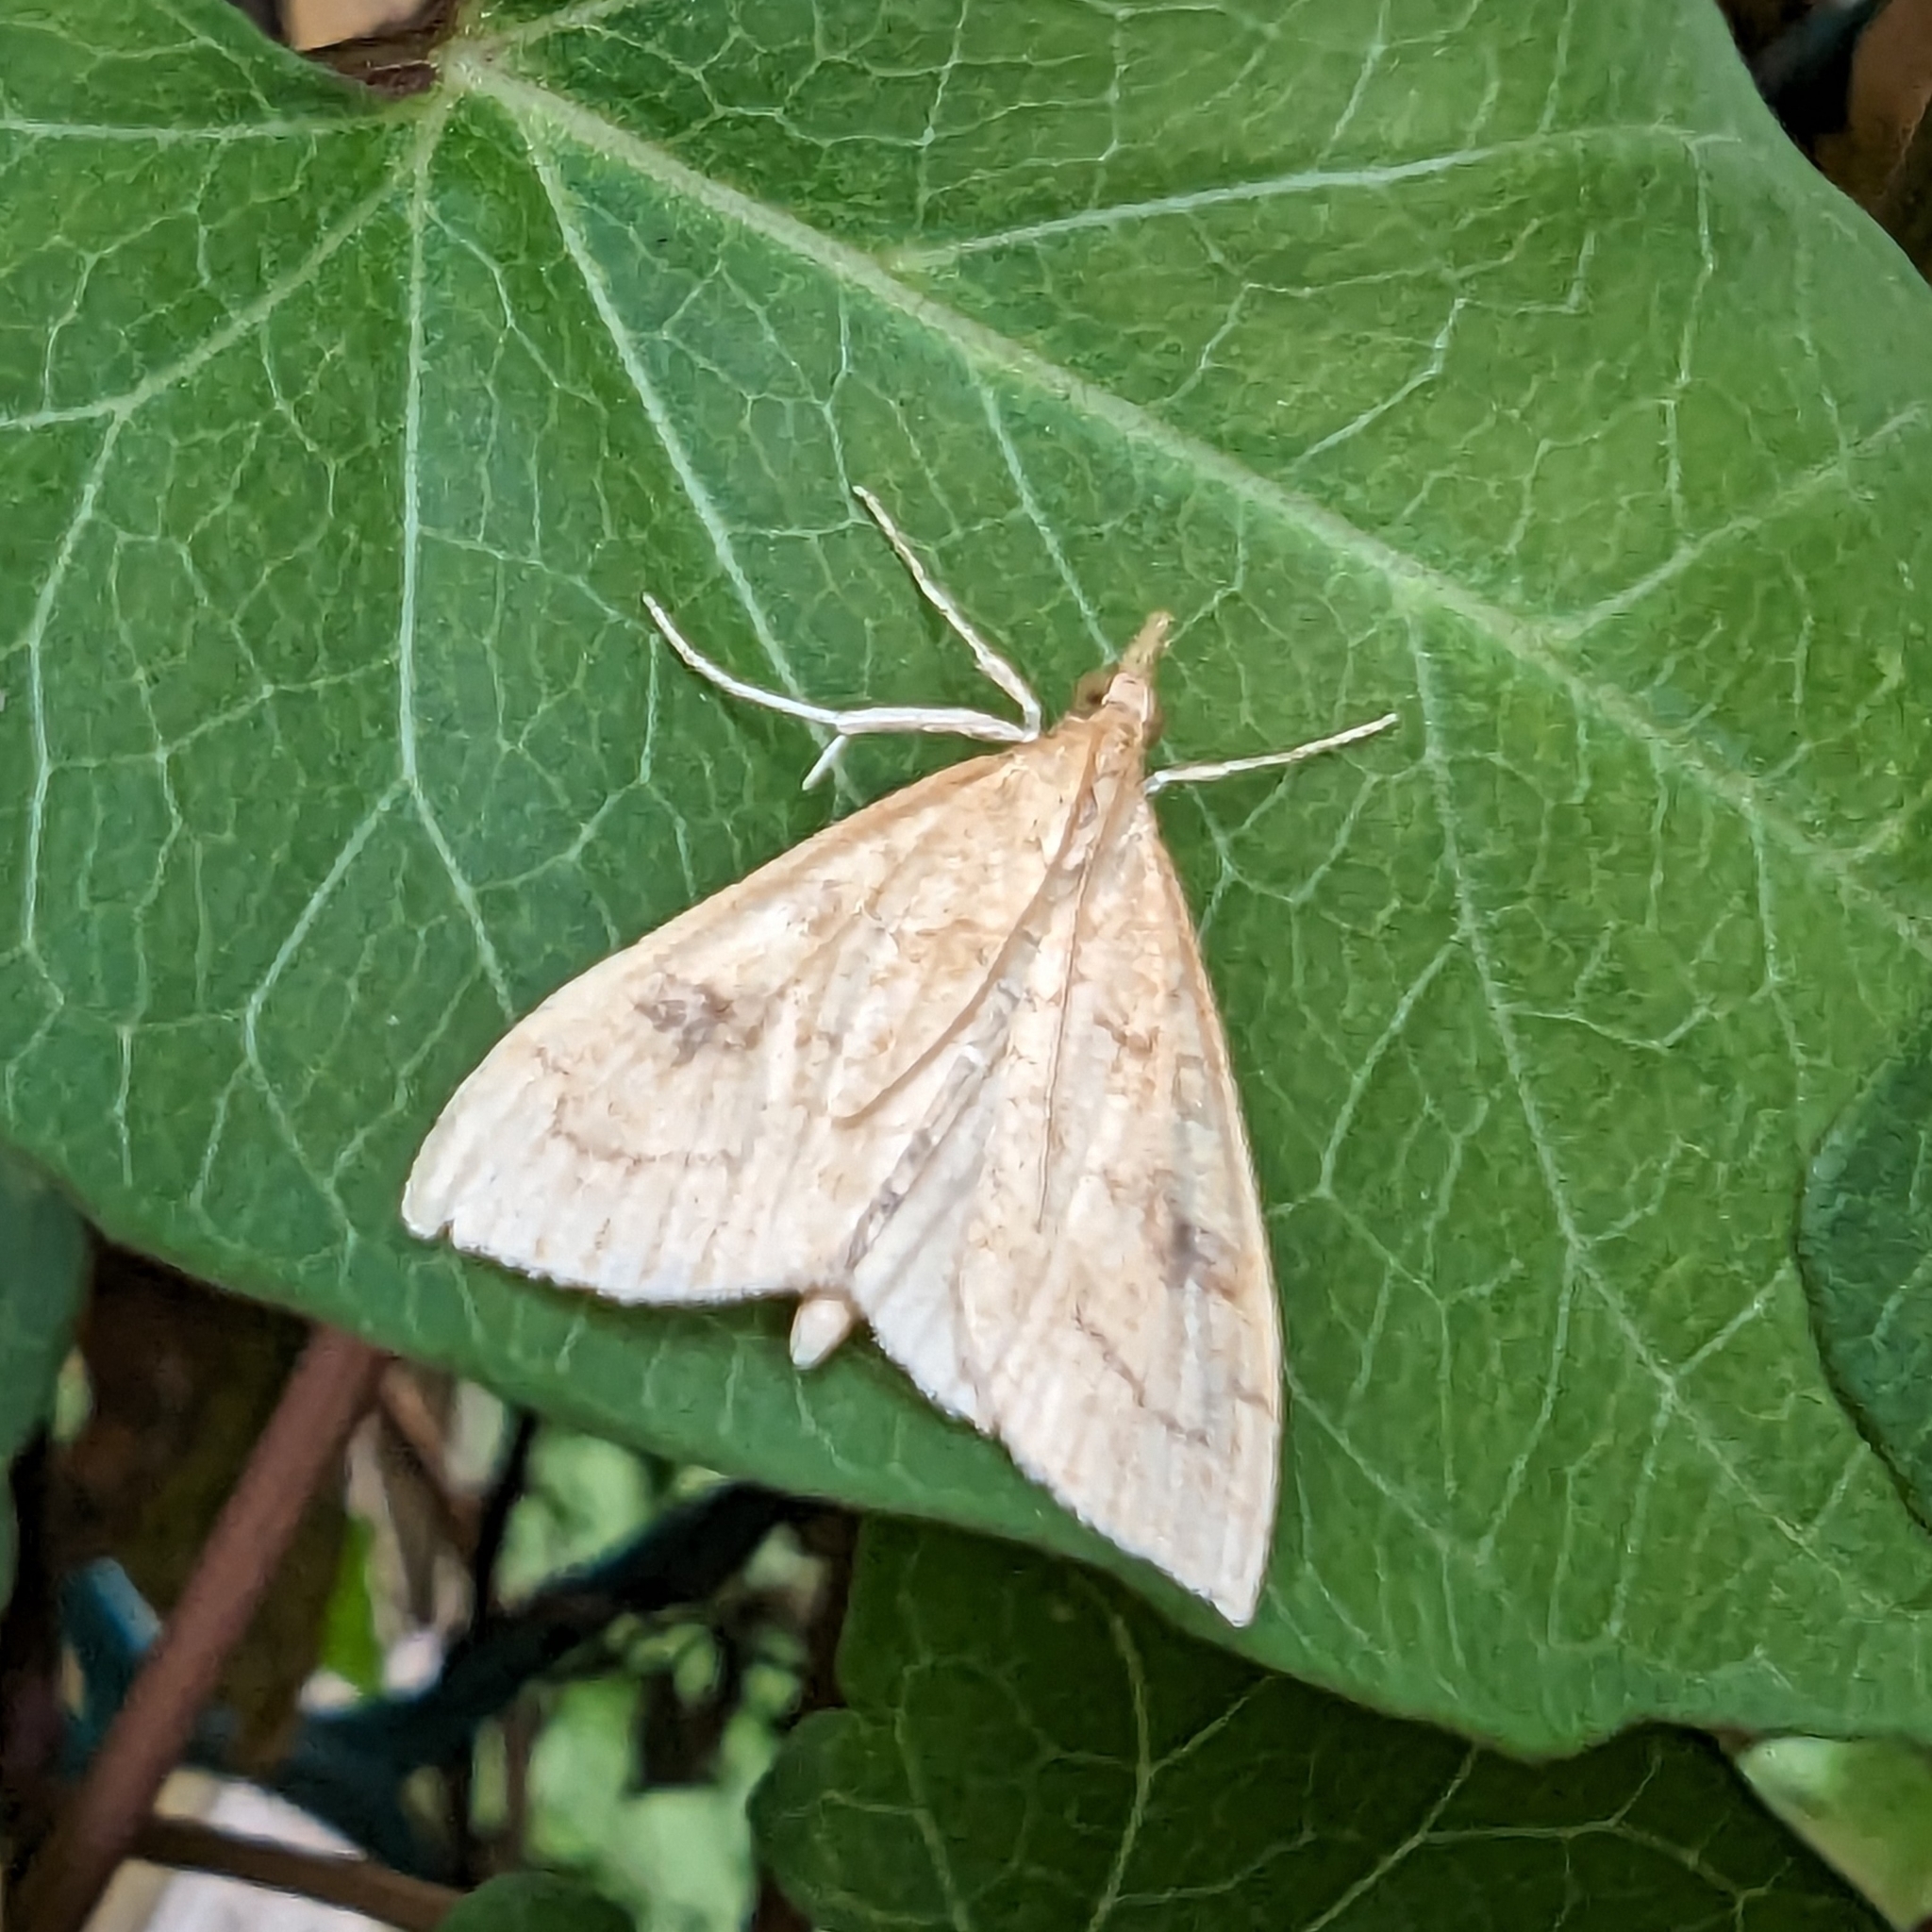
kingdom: Animalia
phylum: Arthropoda
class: Insecta
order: Lepidoptera
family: Crambidae
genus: Udea
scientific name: Udea profundalis
